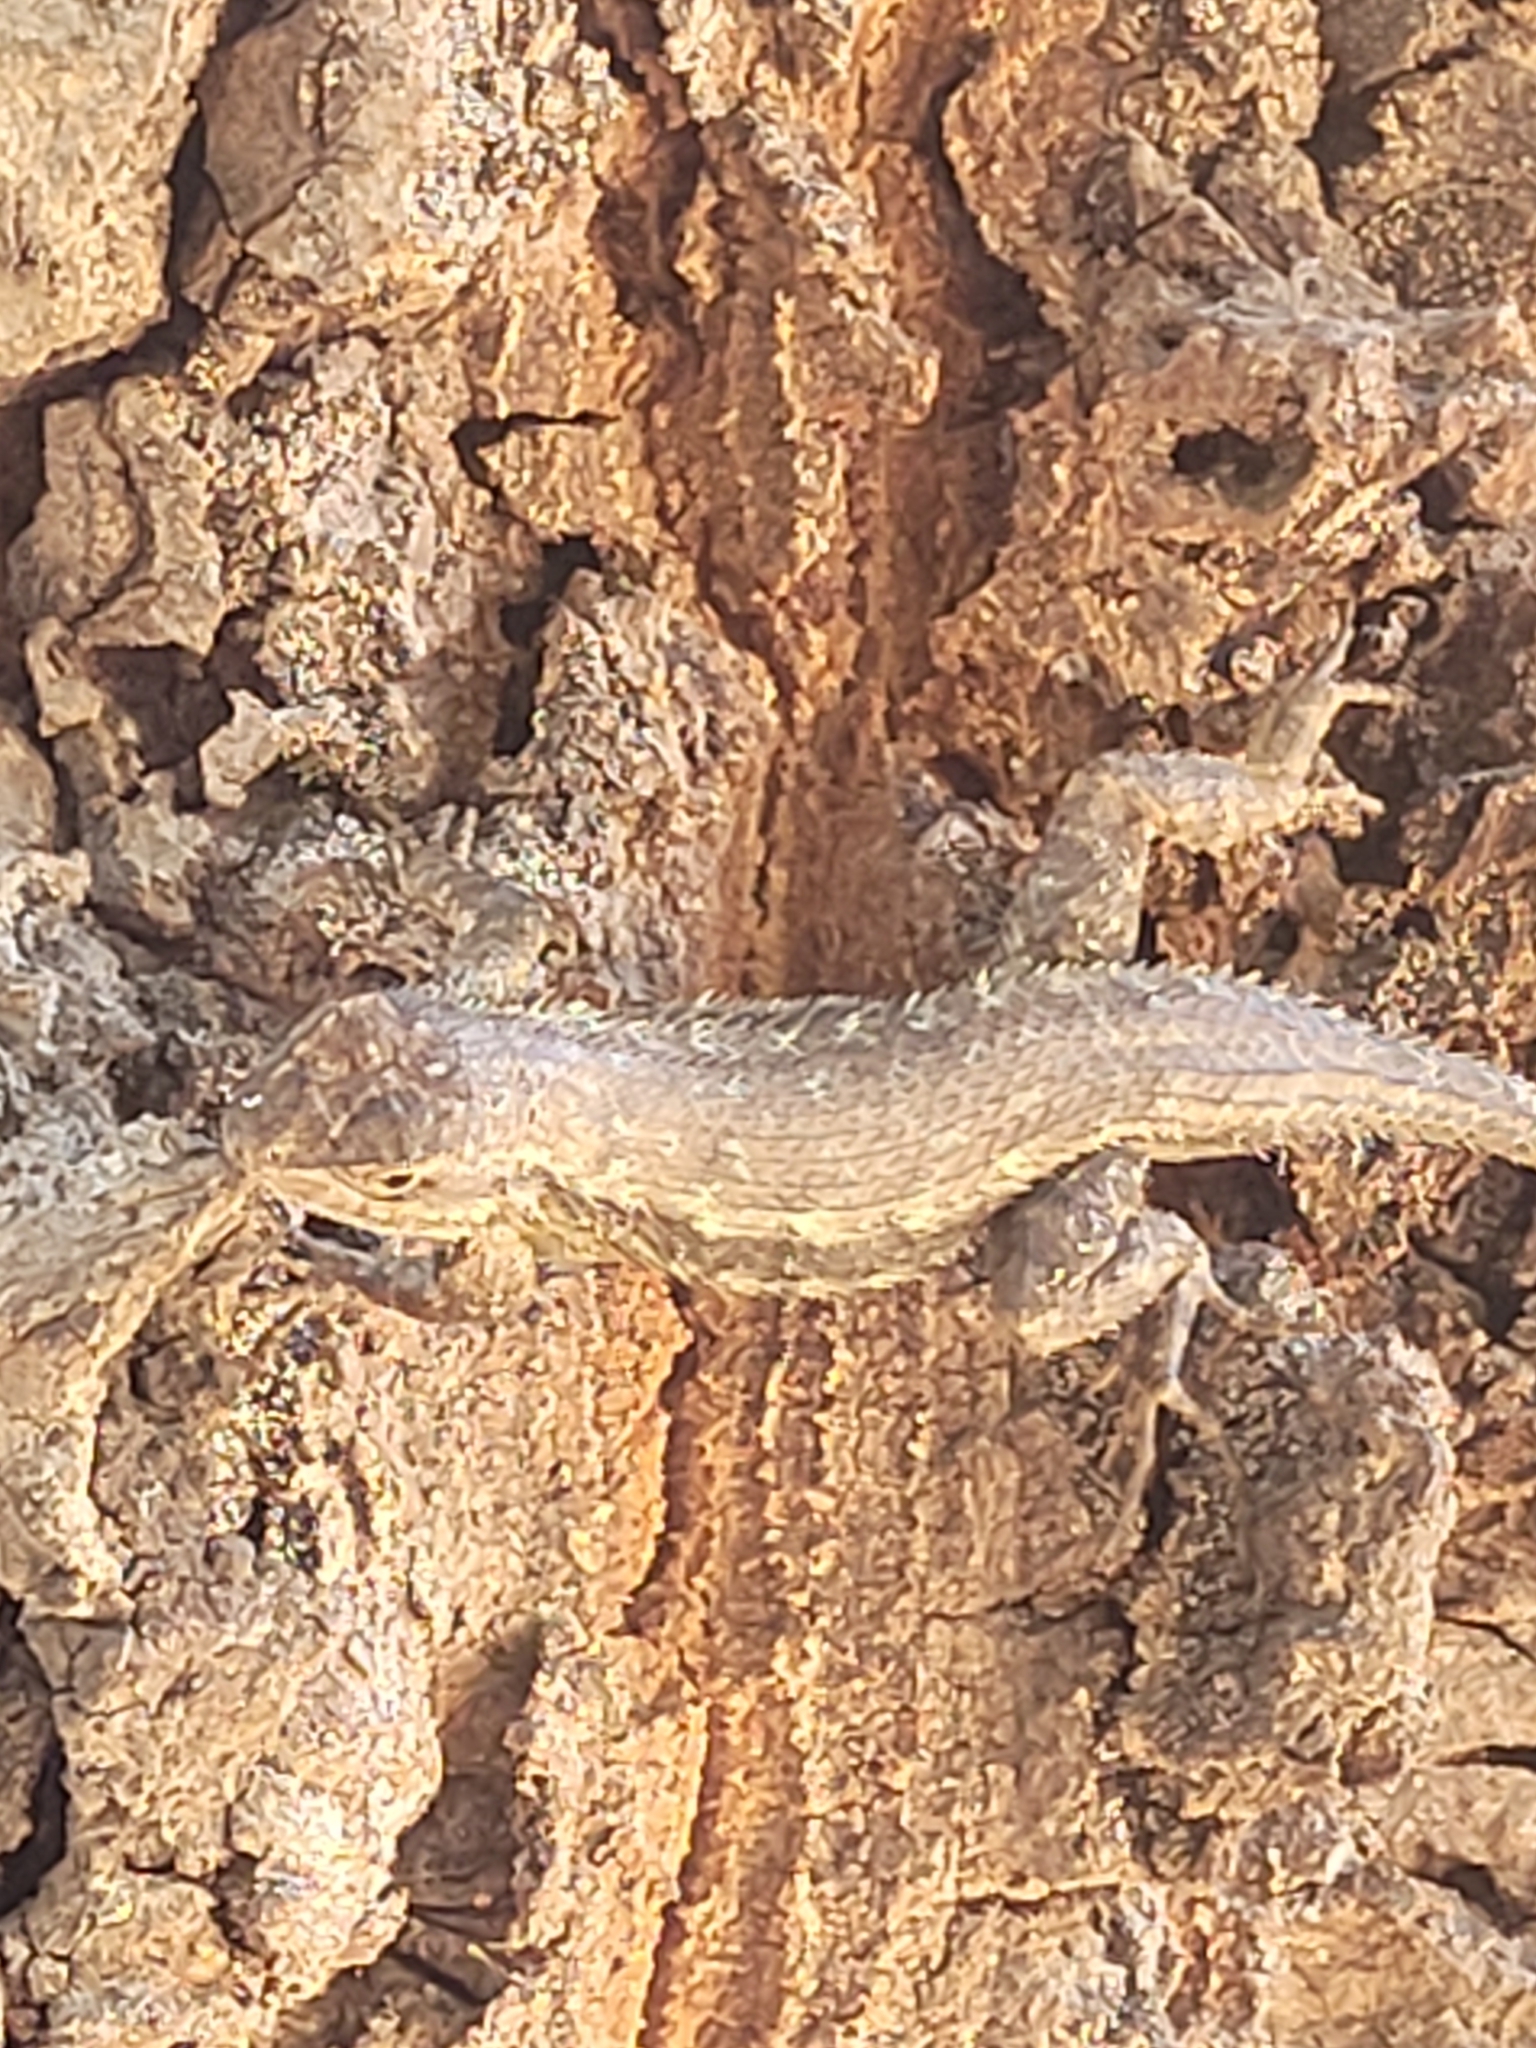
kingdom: Animalia
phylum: Chordata
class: Squamata
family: Phrynosomatidae
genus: Sceloporus
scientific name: Sceloporus occidentalis
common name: Western fence lizard
